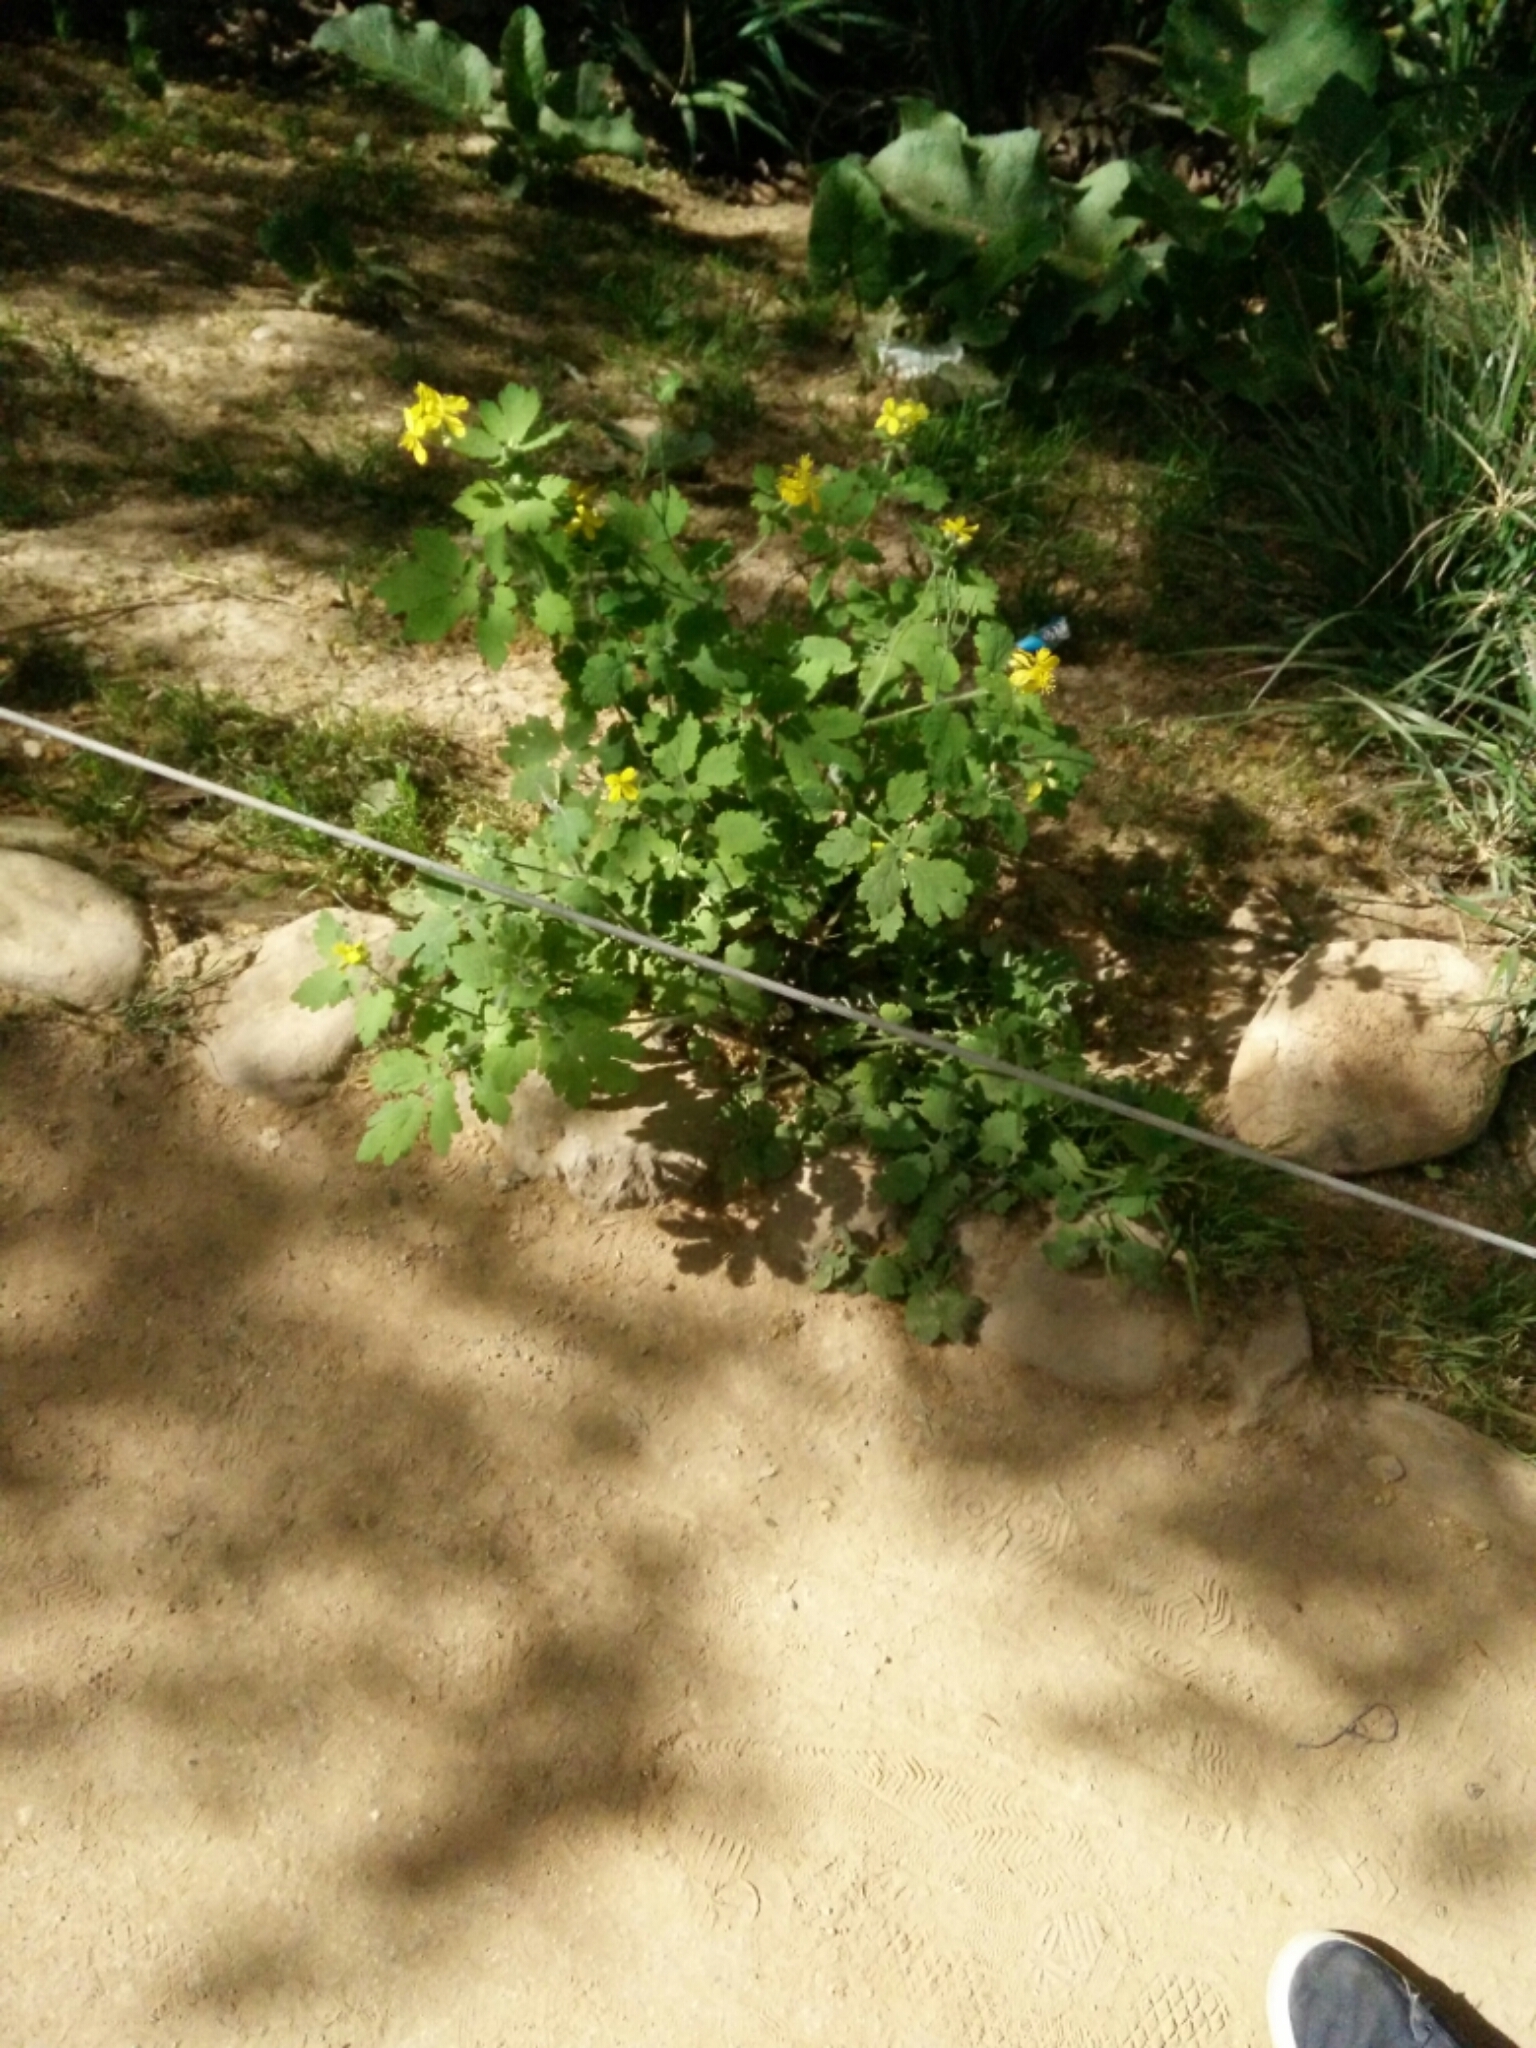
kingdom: Plantae
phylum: Tracheophyta
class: Magnoliopsida
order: Ranunculales
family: Papaveraceae
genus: Chelidonium
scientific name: Chelidonium majus
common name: Greater celandine
